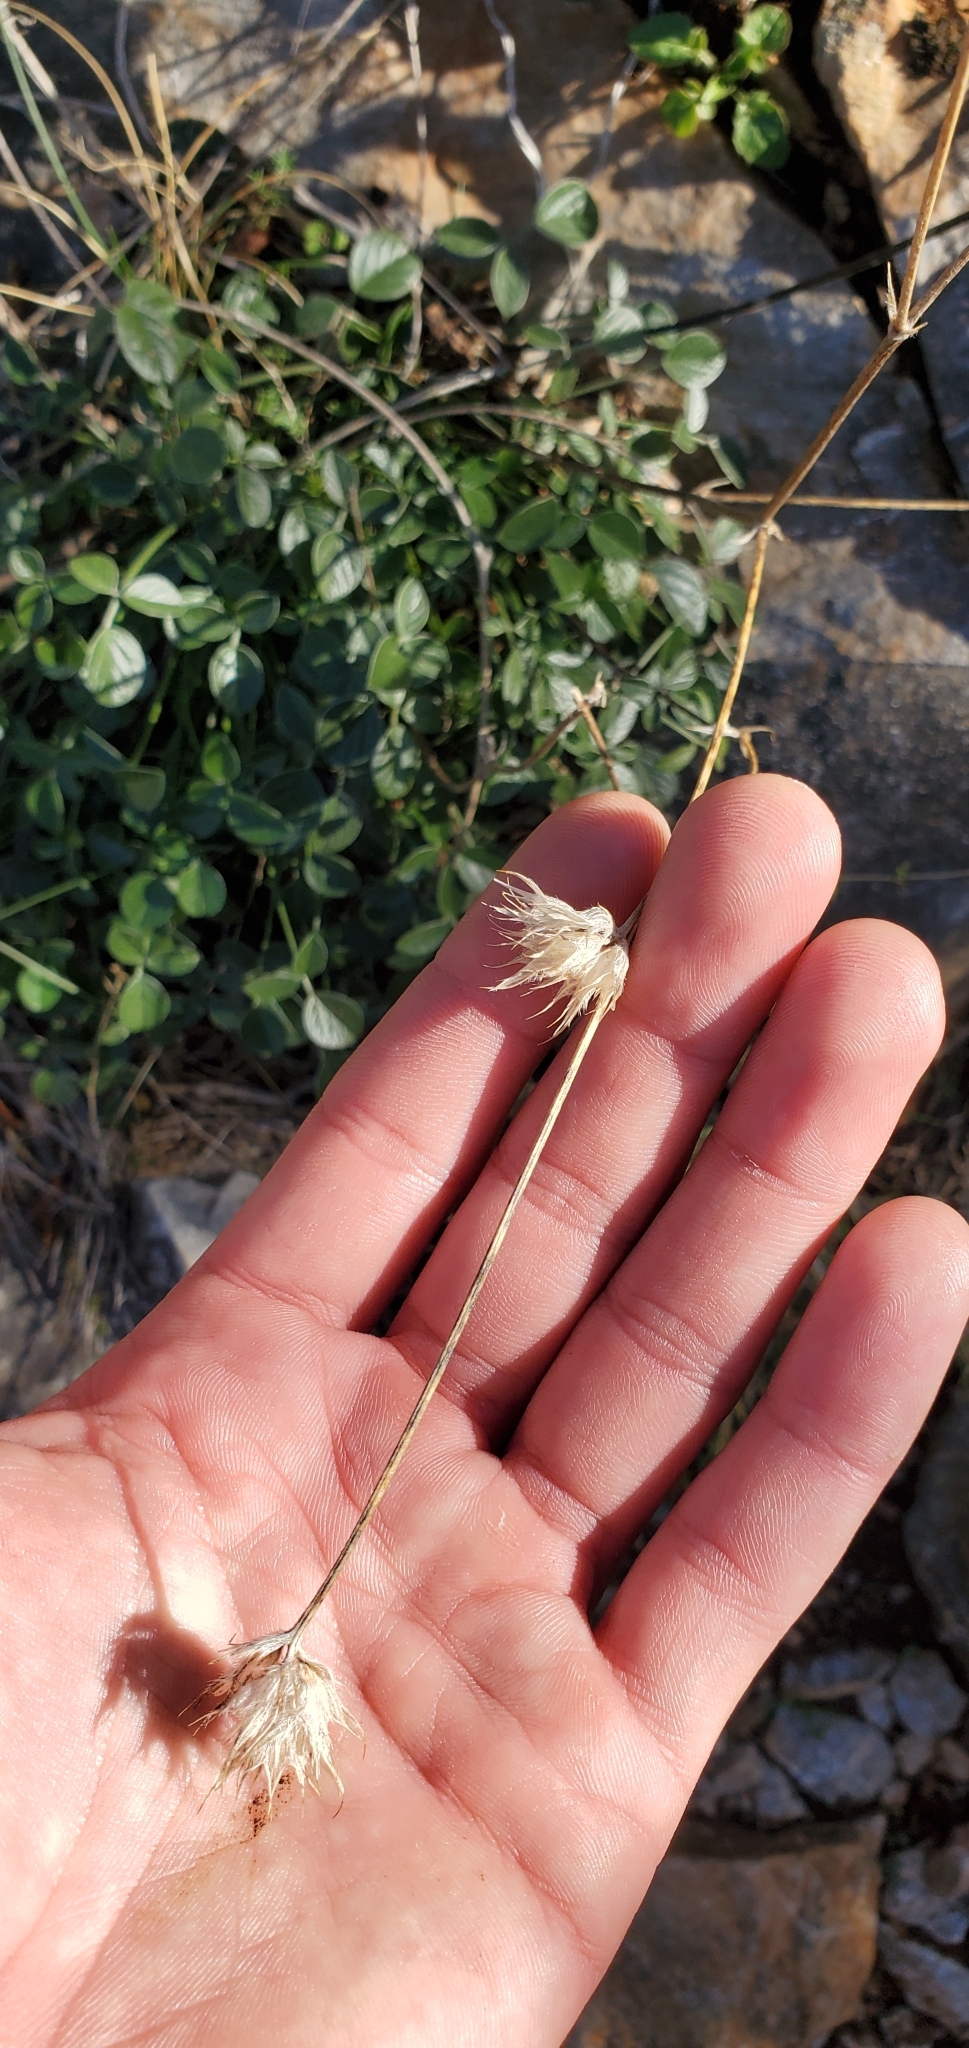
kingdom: Plantae
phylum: Tracheophyta
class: Magnoliopsida
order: Fabales
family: Fabaceae
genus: Bituminaria
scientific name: Bituminaria bituminosa
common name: Arabian pea
